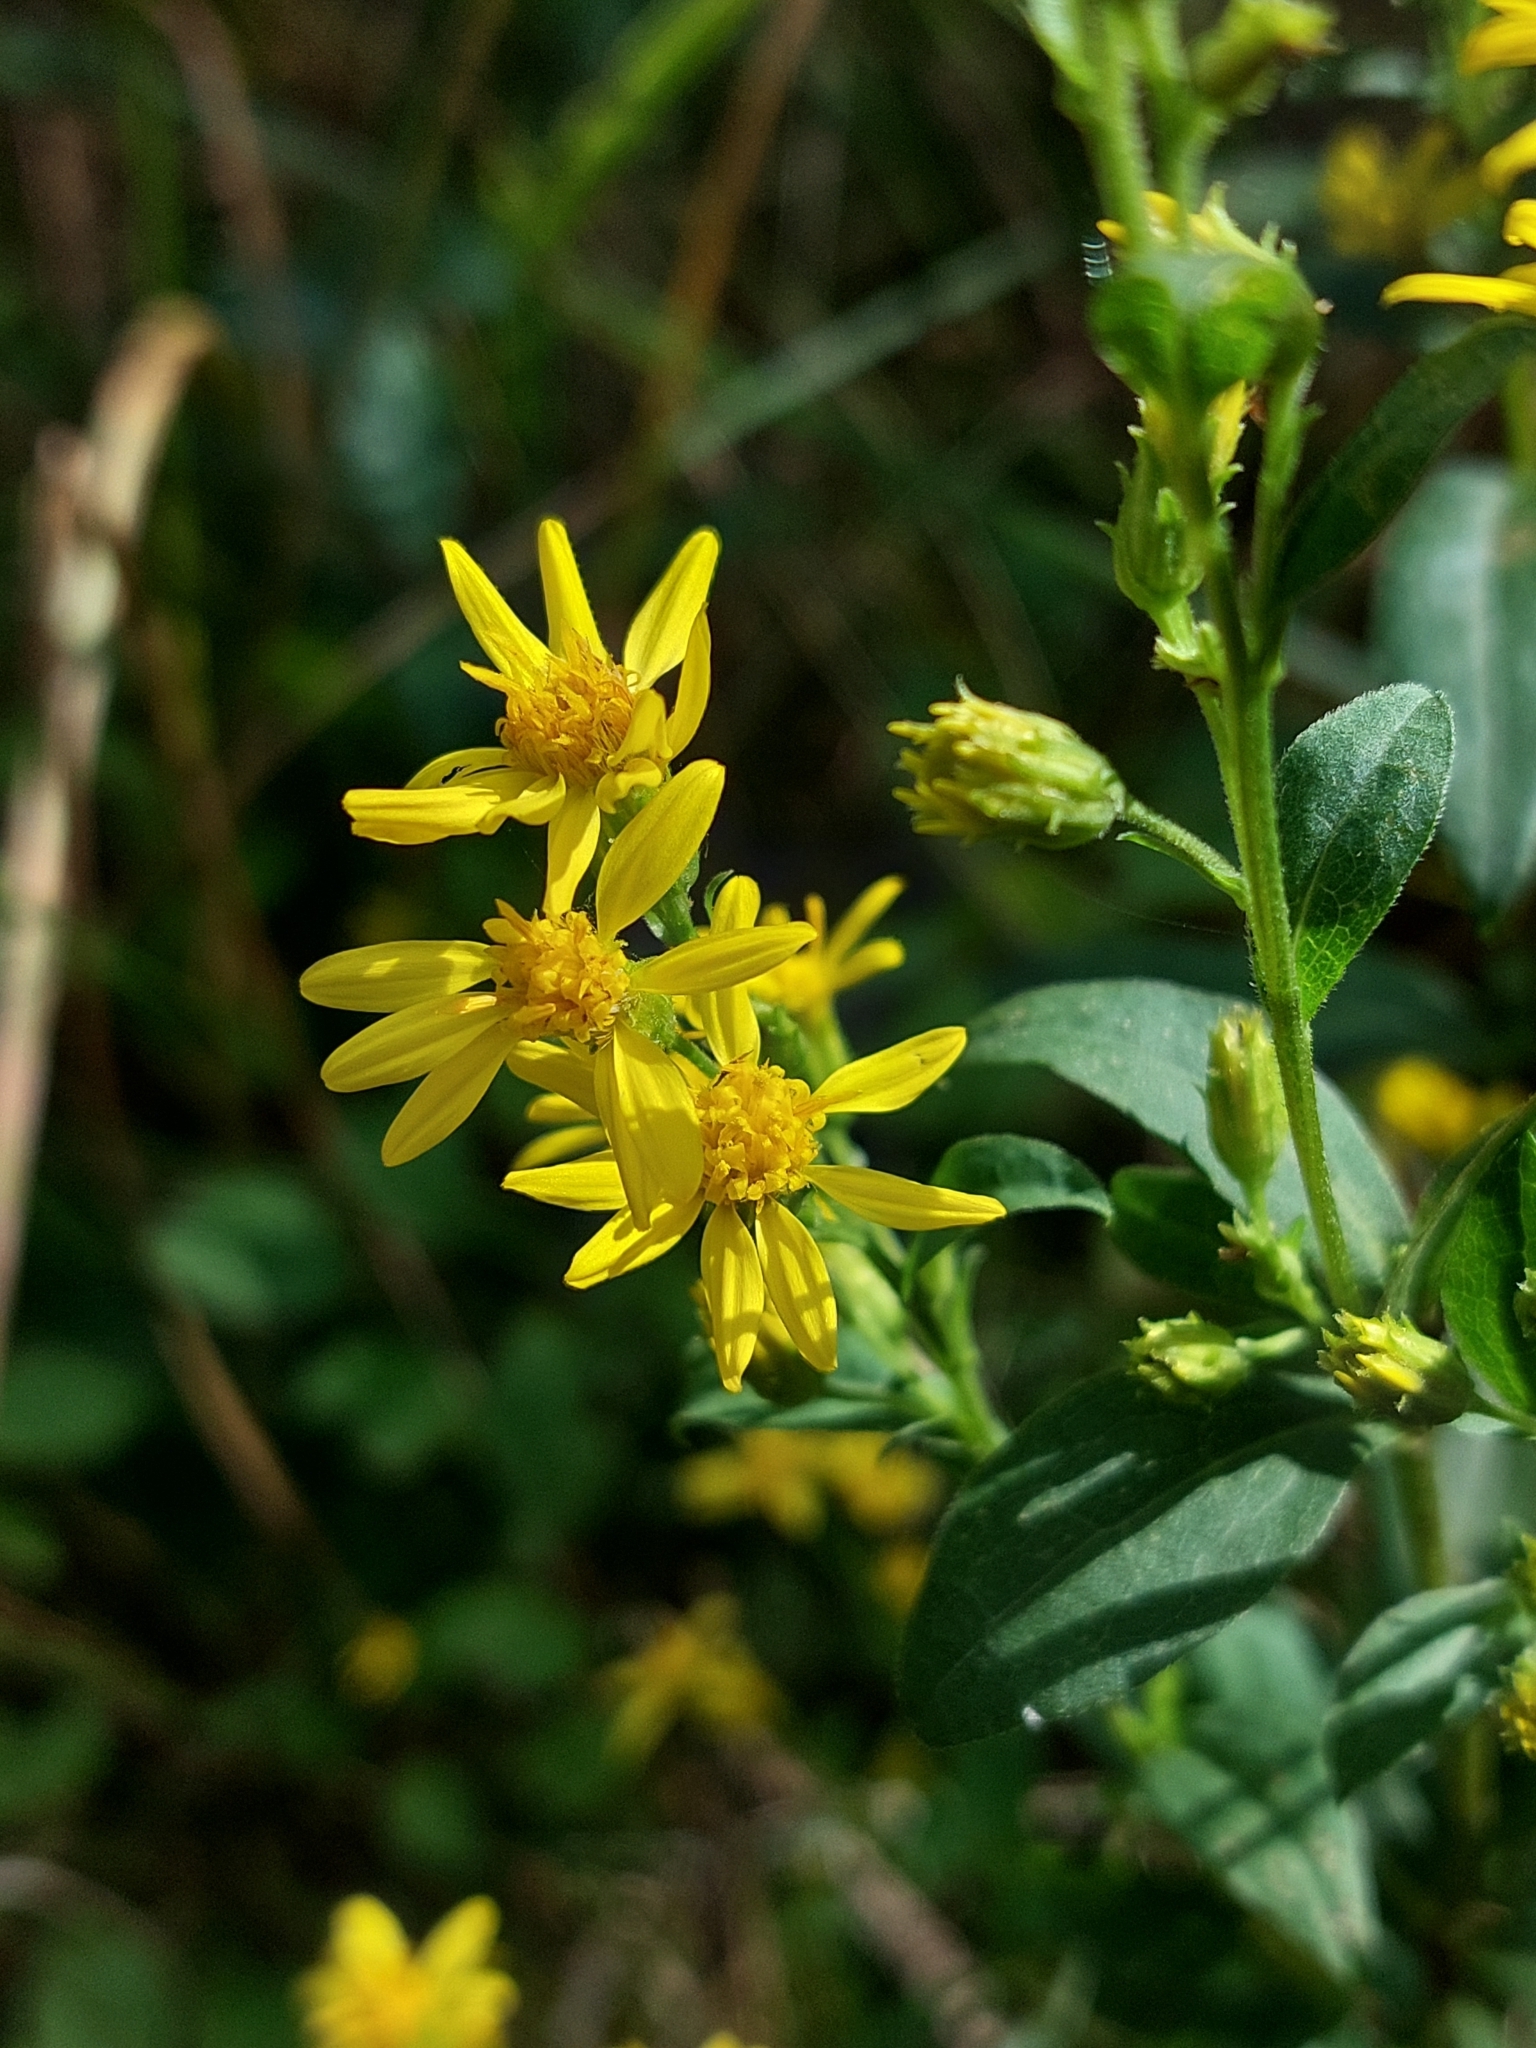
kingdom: Plantae
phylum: Tracheophyta
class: Magnoliopsida
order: Asterales
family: Asteraceae
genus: Solidago
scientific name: Solidago virgaurea
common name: Goldenrod
